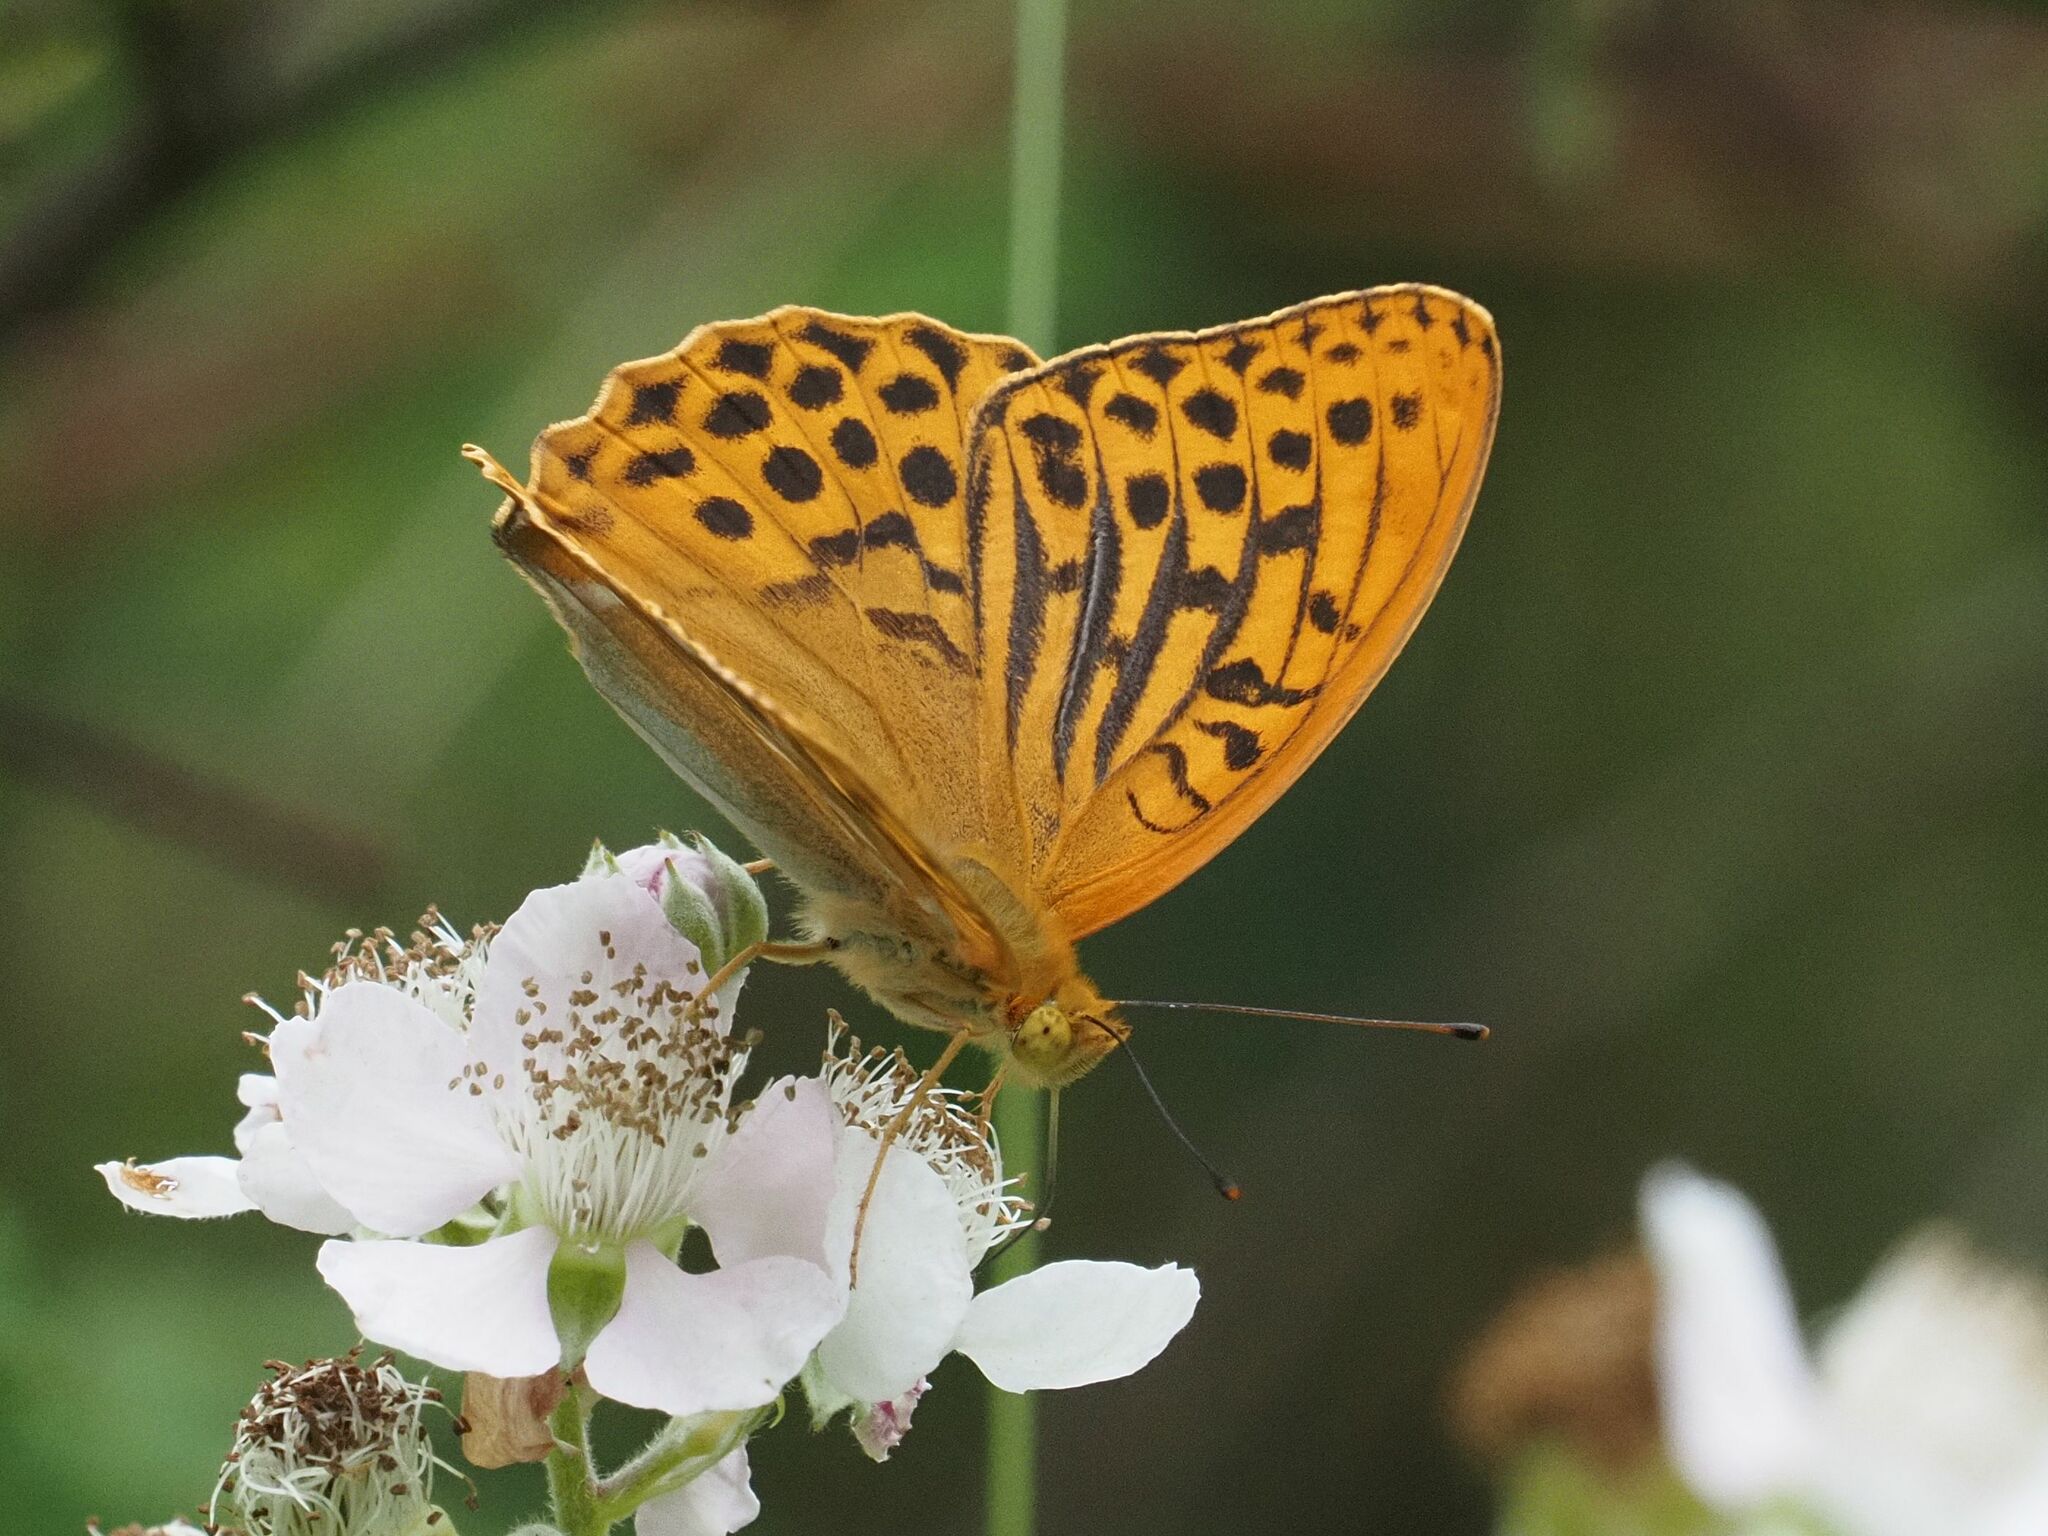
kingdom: Animalia
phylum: Arthropoda
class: Insecta
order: Lepidoptera
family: Nymphalidae
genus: Argynnis
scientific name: Argynnis paphia
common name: Silver-washed fritillary
